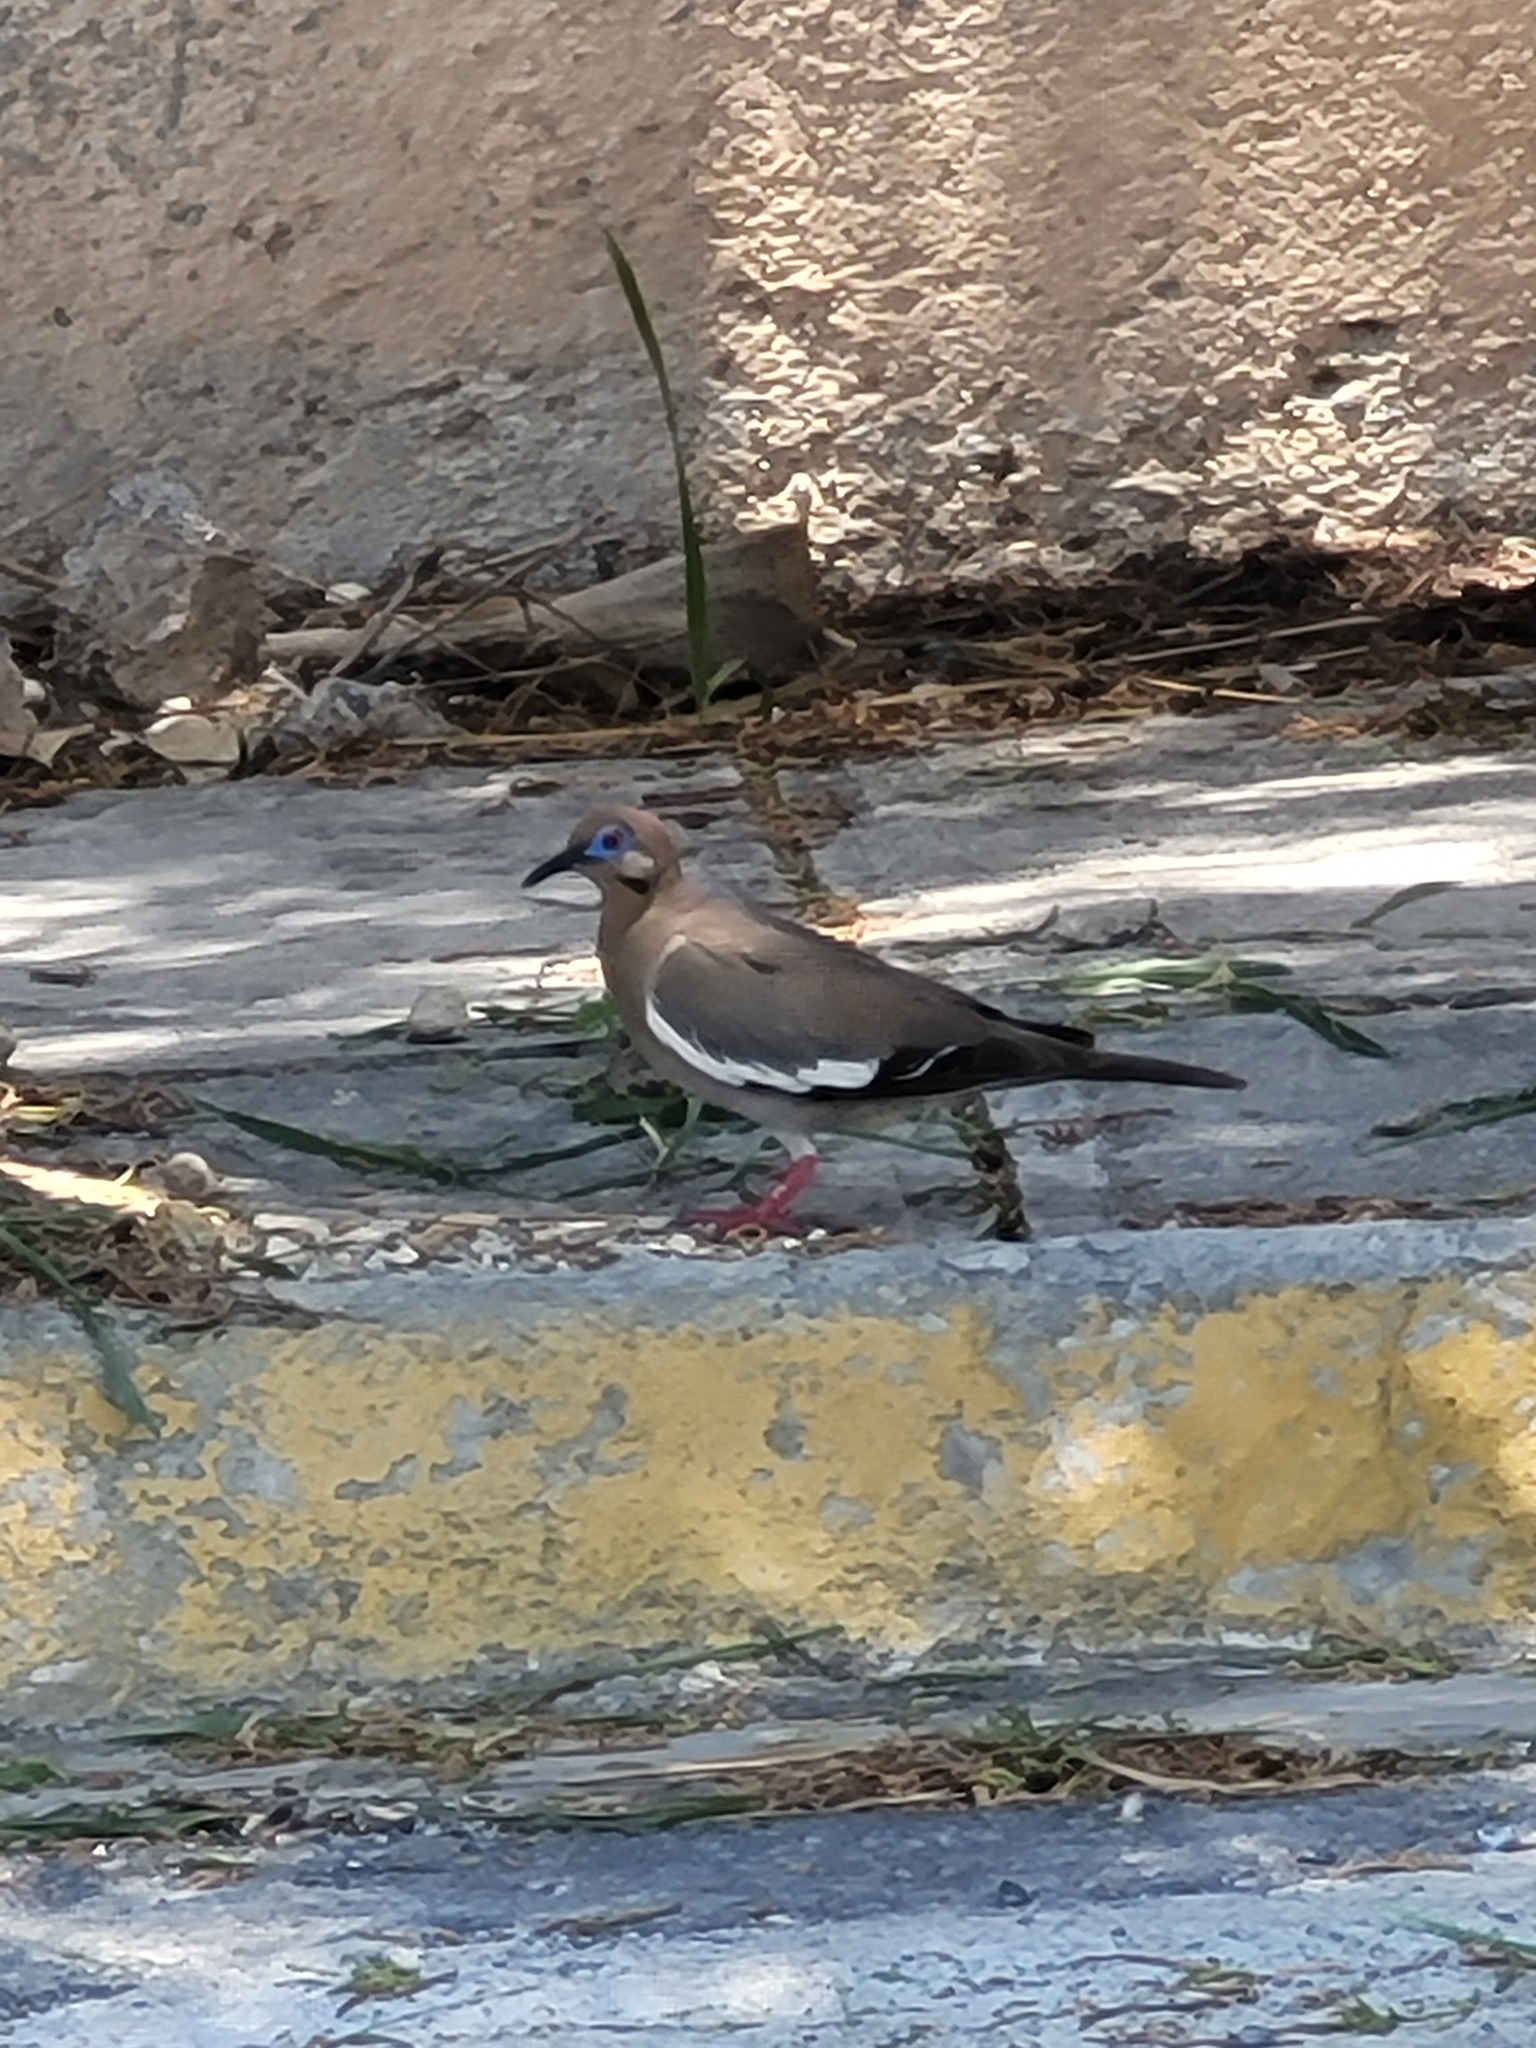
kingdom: Animalia
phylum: Chordata
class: Aves
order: Columbiformes
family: Columbidae
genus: Zenaida
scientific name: Zenaida asiatica
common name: White-winged dove
